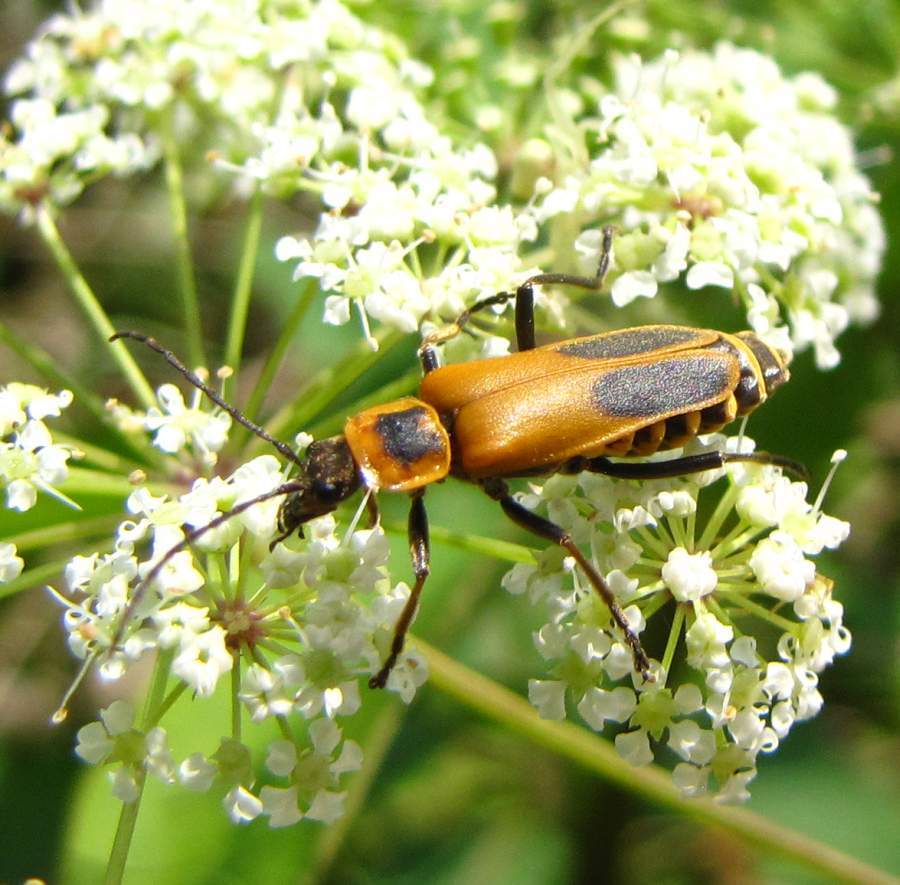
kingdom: Animalia
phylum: Arthropoda
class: Insecta
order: Coleoptera
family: Cantharidae
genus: Chauliognathus
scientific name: Chauliognathus pensylvanicus
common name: Goldenrod soldier beetle
